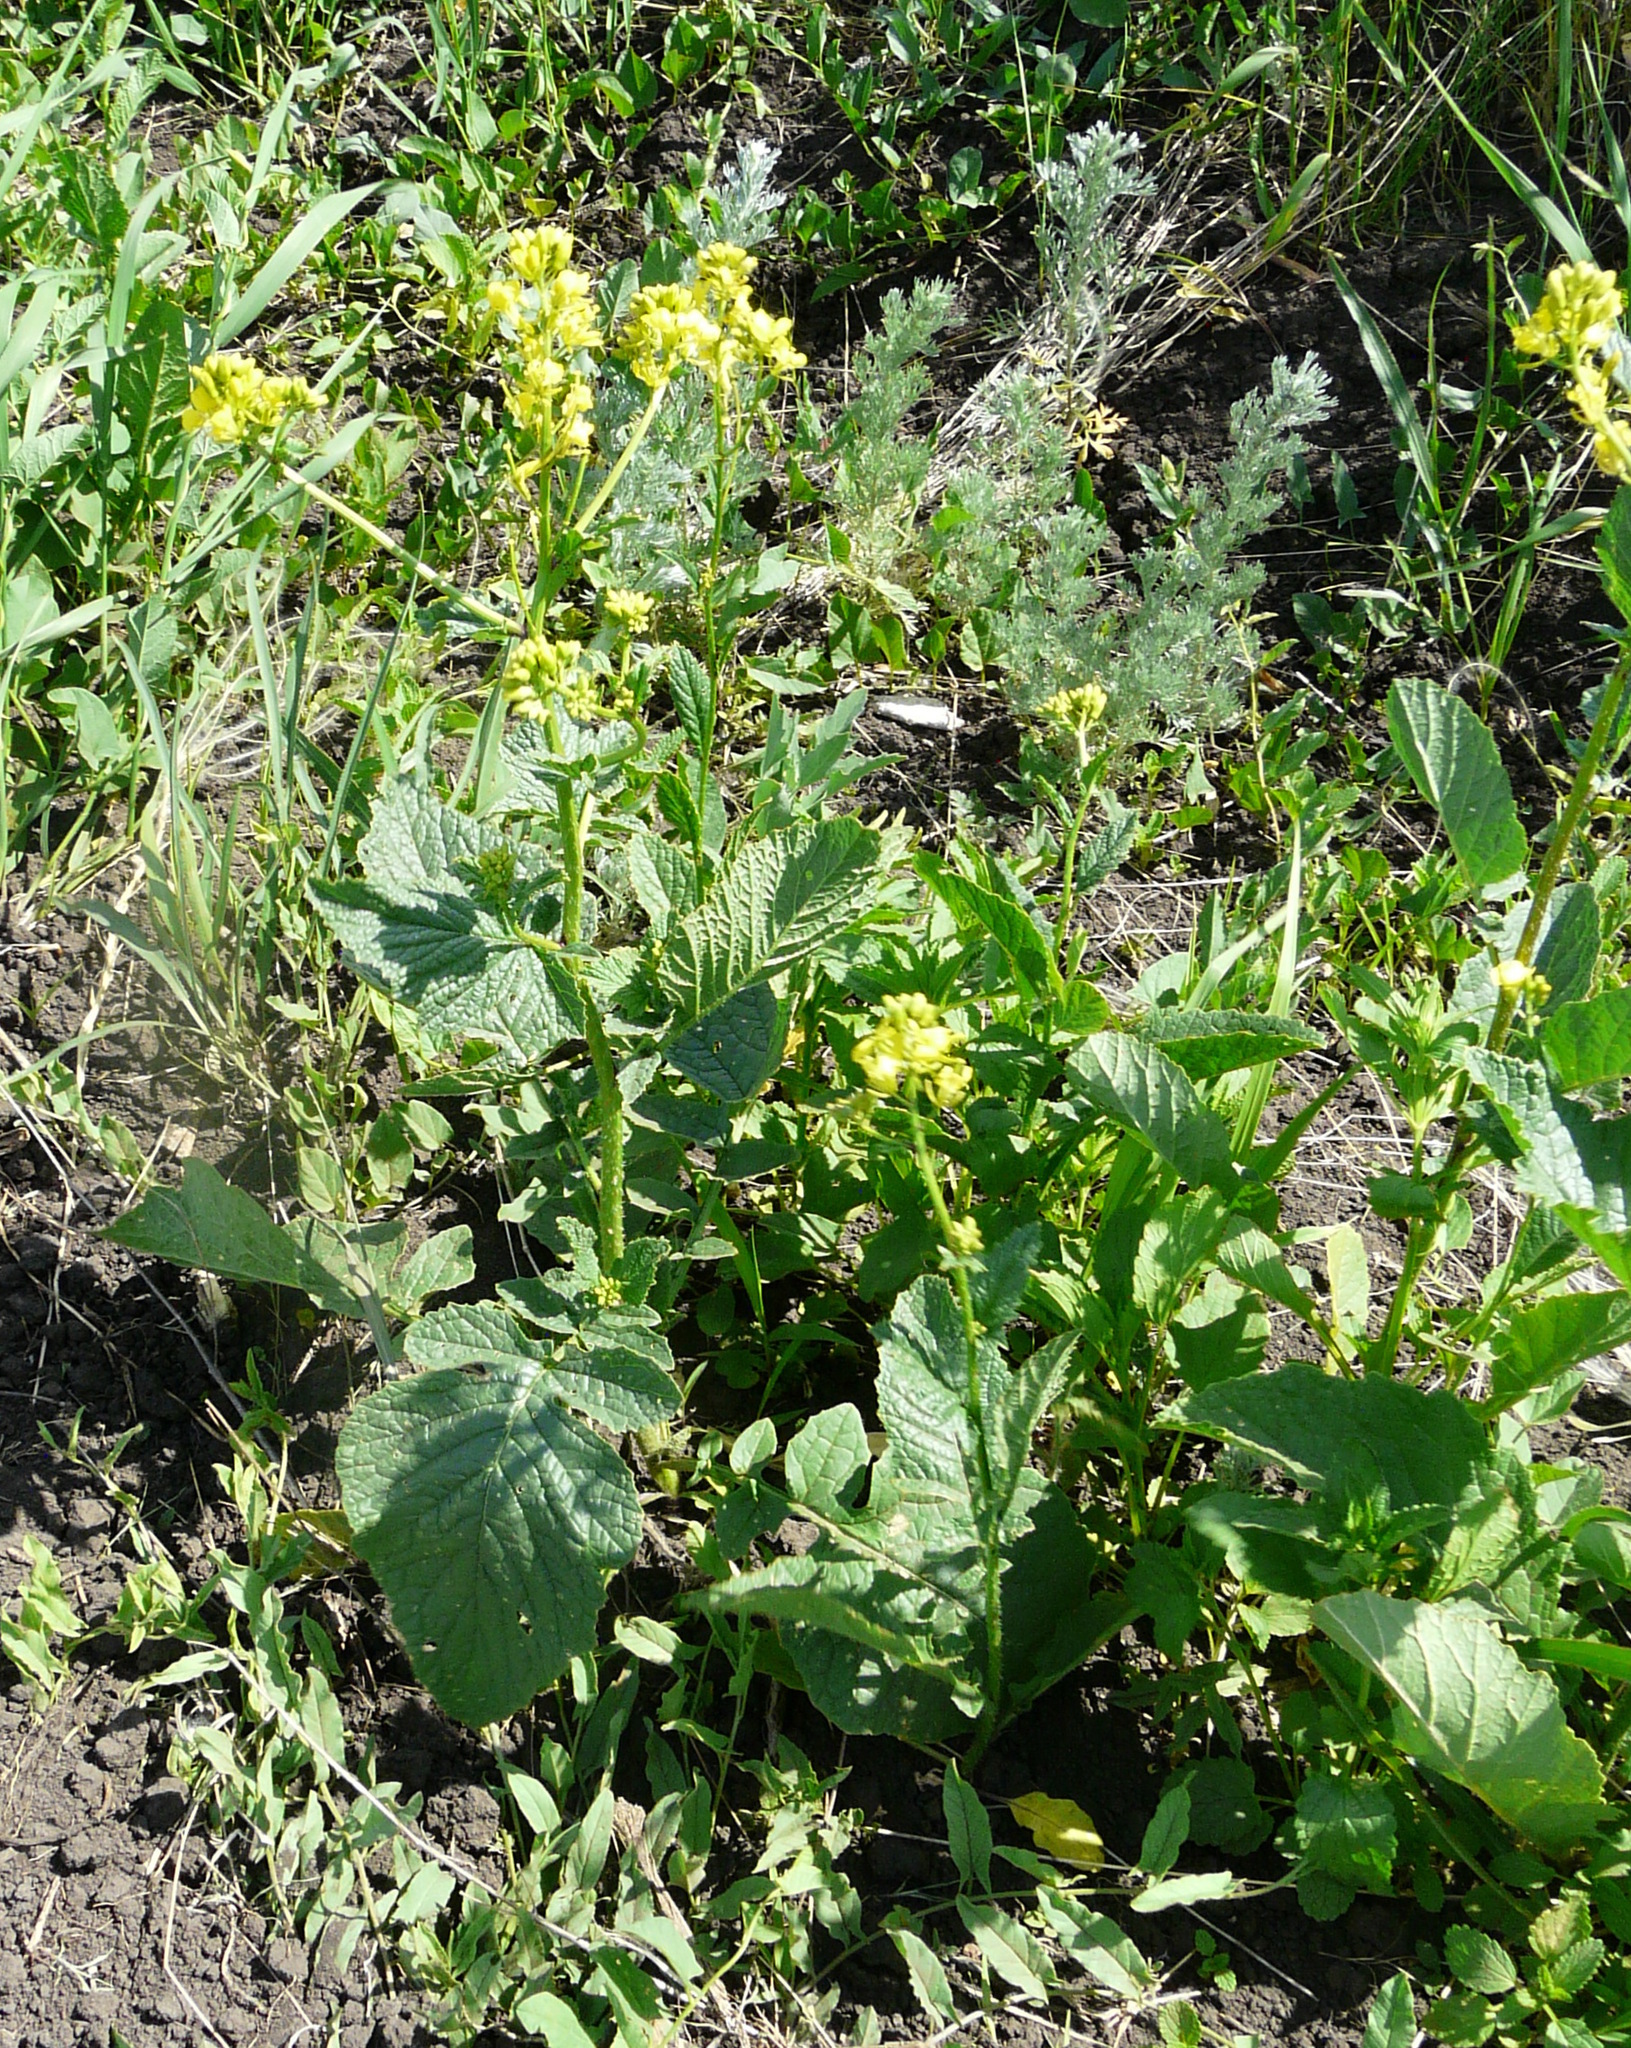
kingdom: Plantae
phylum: Tracheophyta
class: Magnoliopsida
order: Brassicales
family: Brassicaceae
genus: Sinapis
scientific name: Sinapis arvensis
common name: Charlock
